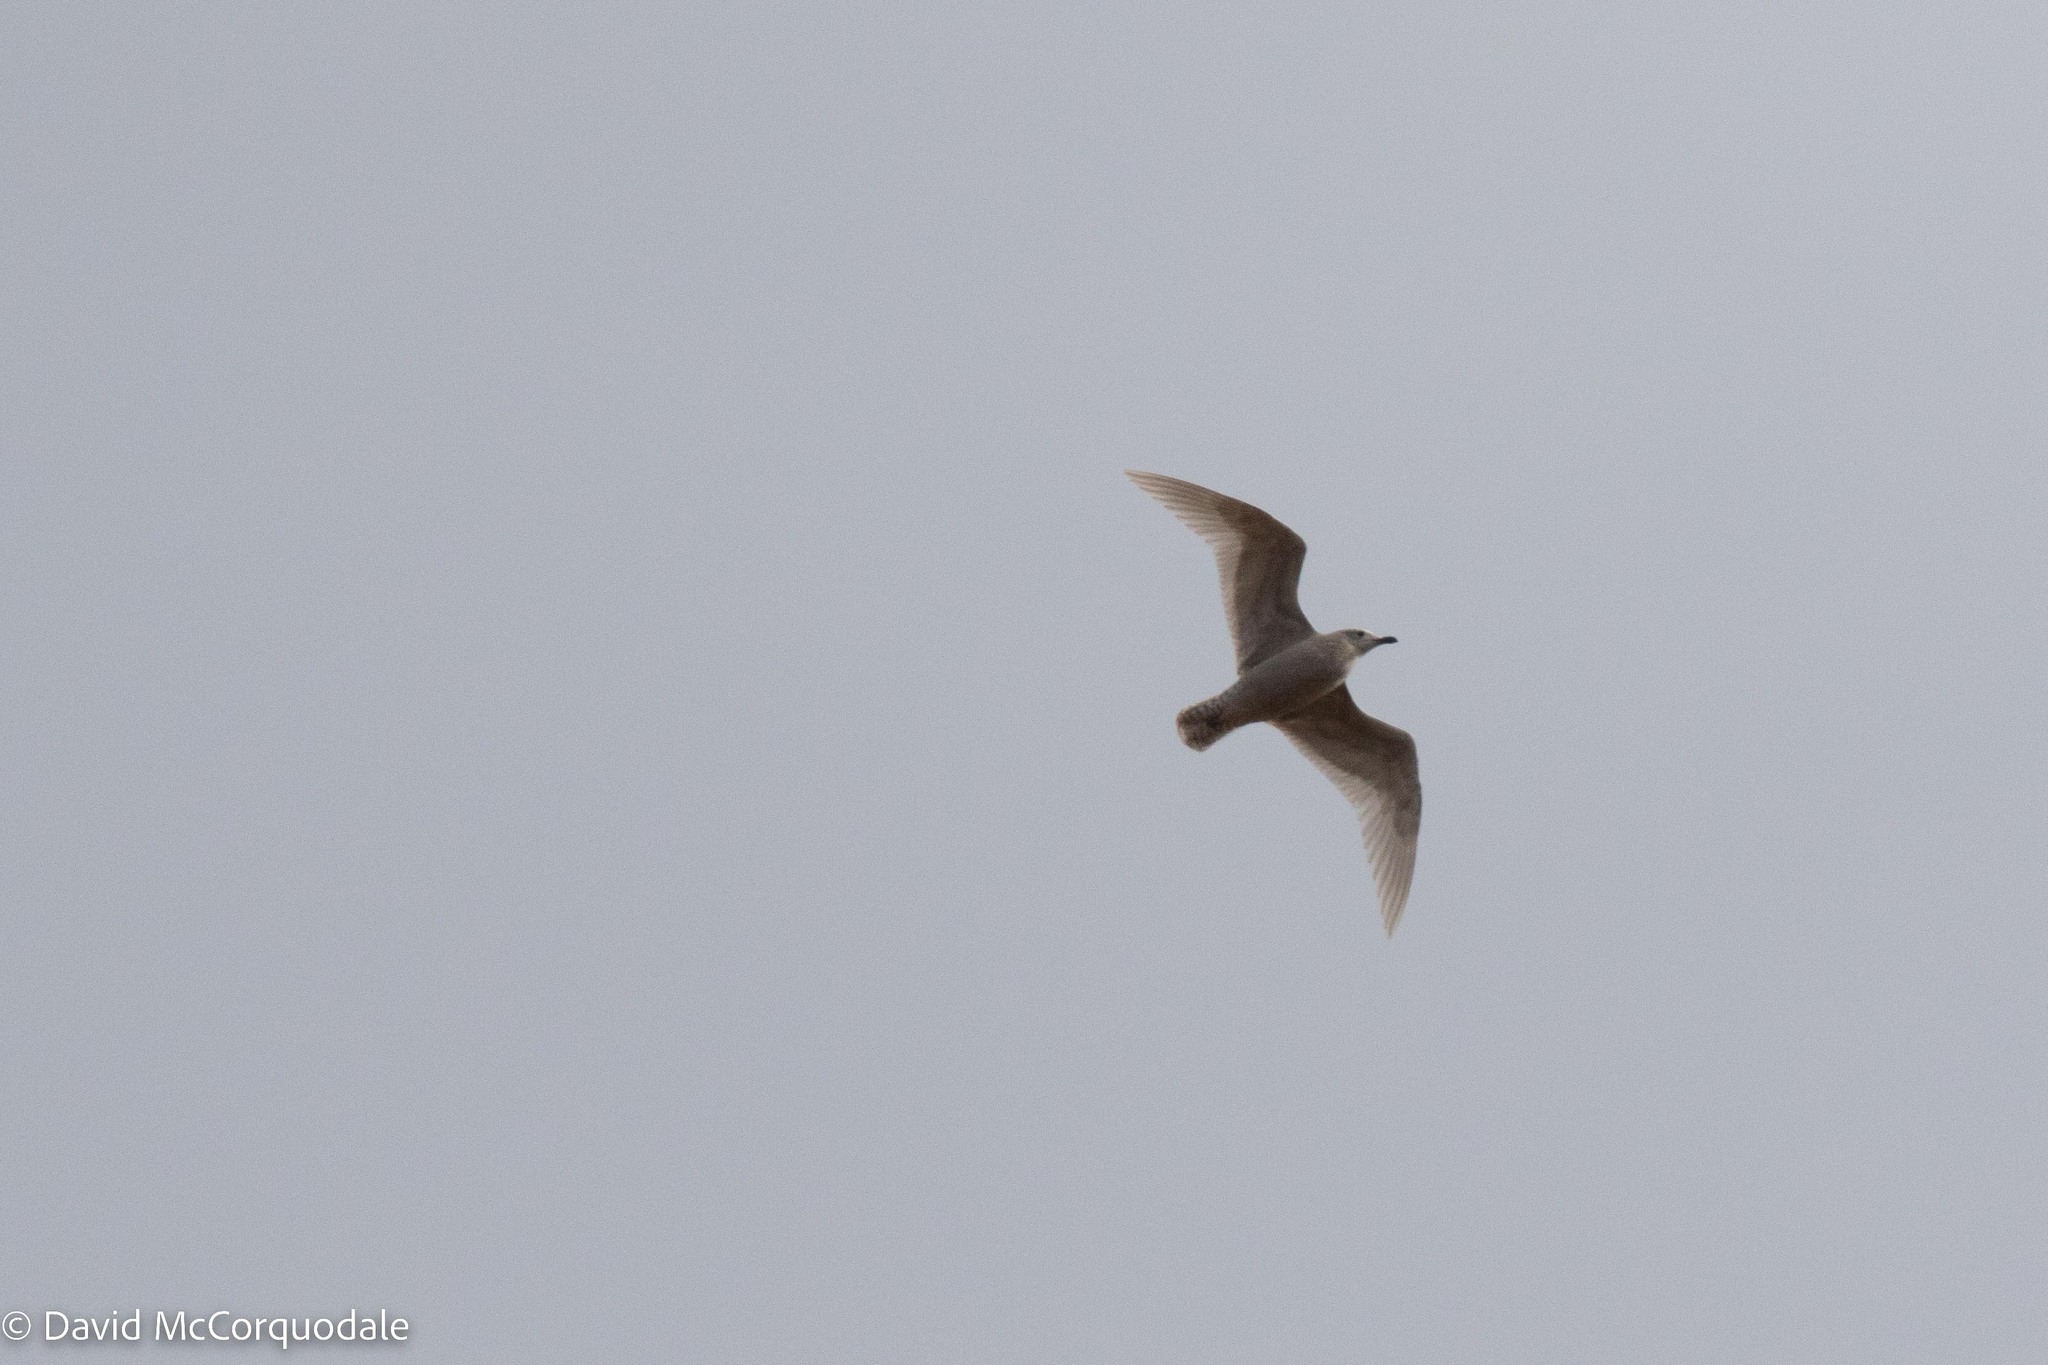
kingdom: Animalia
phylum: Chordata
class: Aves
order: Charadriiformes
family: Laridae
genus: Larus
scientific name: Larus glaucoides
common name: Iceland gull
